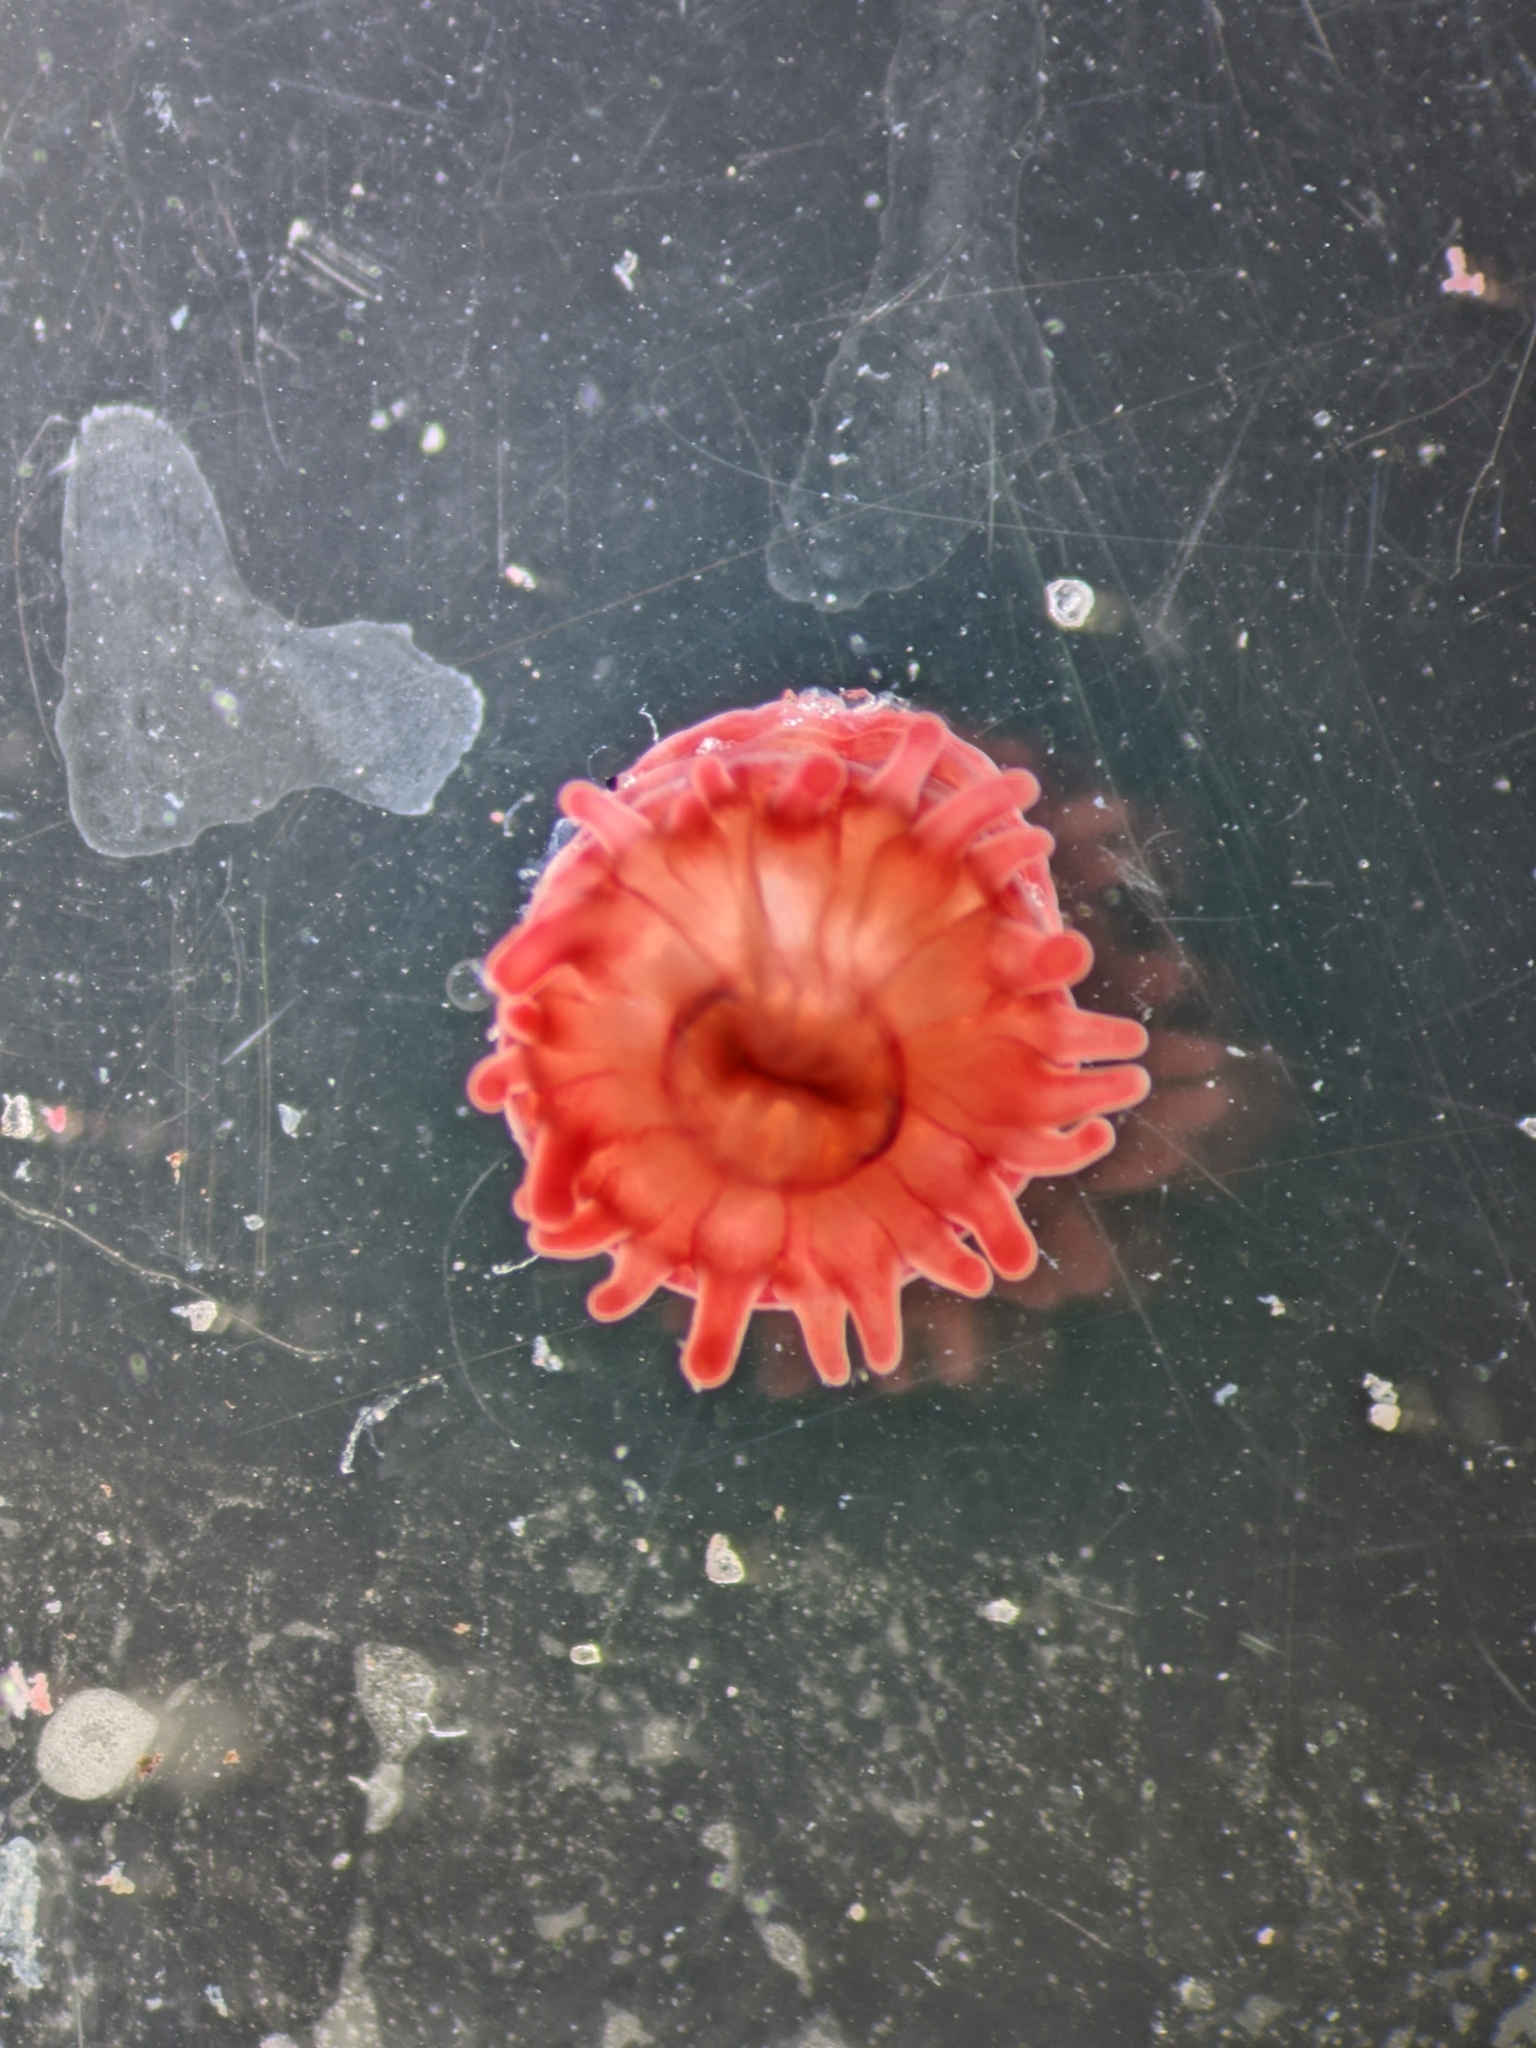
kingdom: Animalia
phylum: Cnidaria
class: Anthozoa
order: Actiniaria
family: Actiniidae
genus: Actinia
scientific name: Actinia equina
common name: Beadlet anemone
